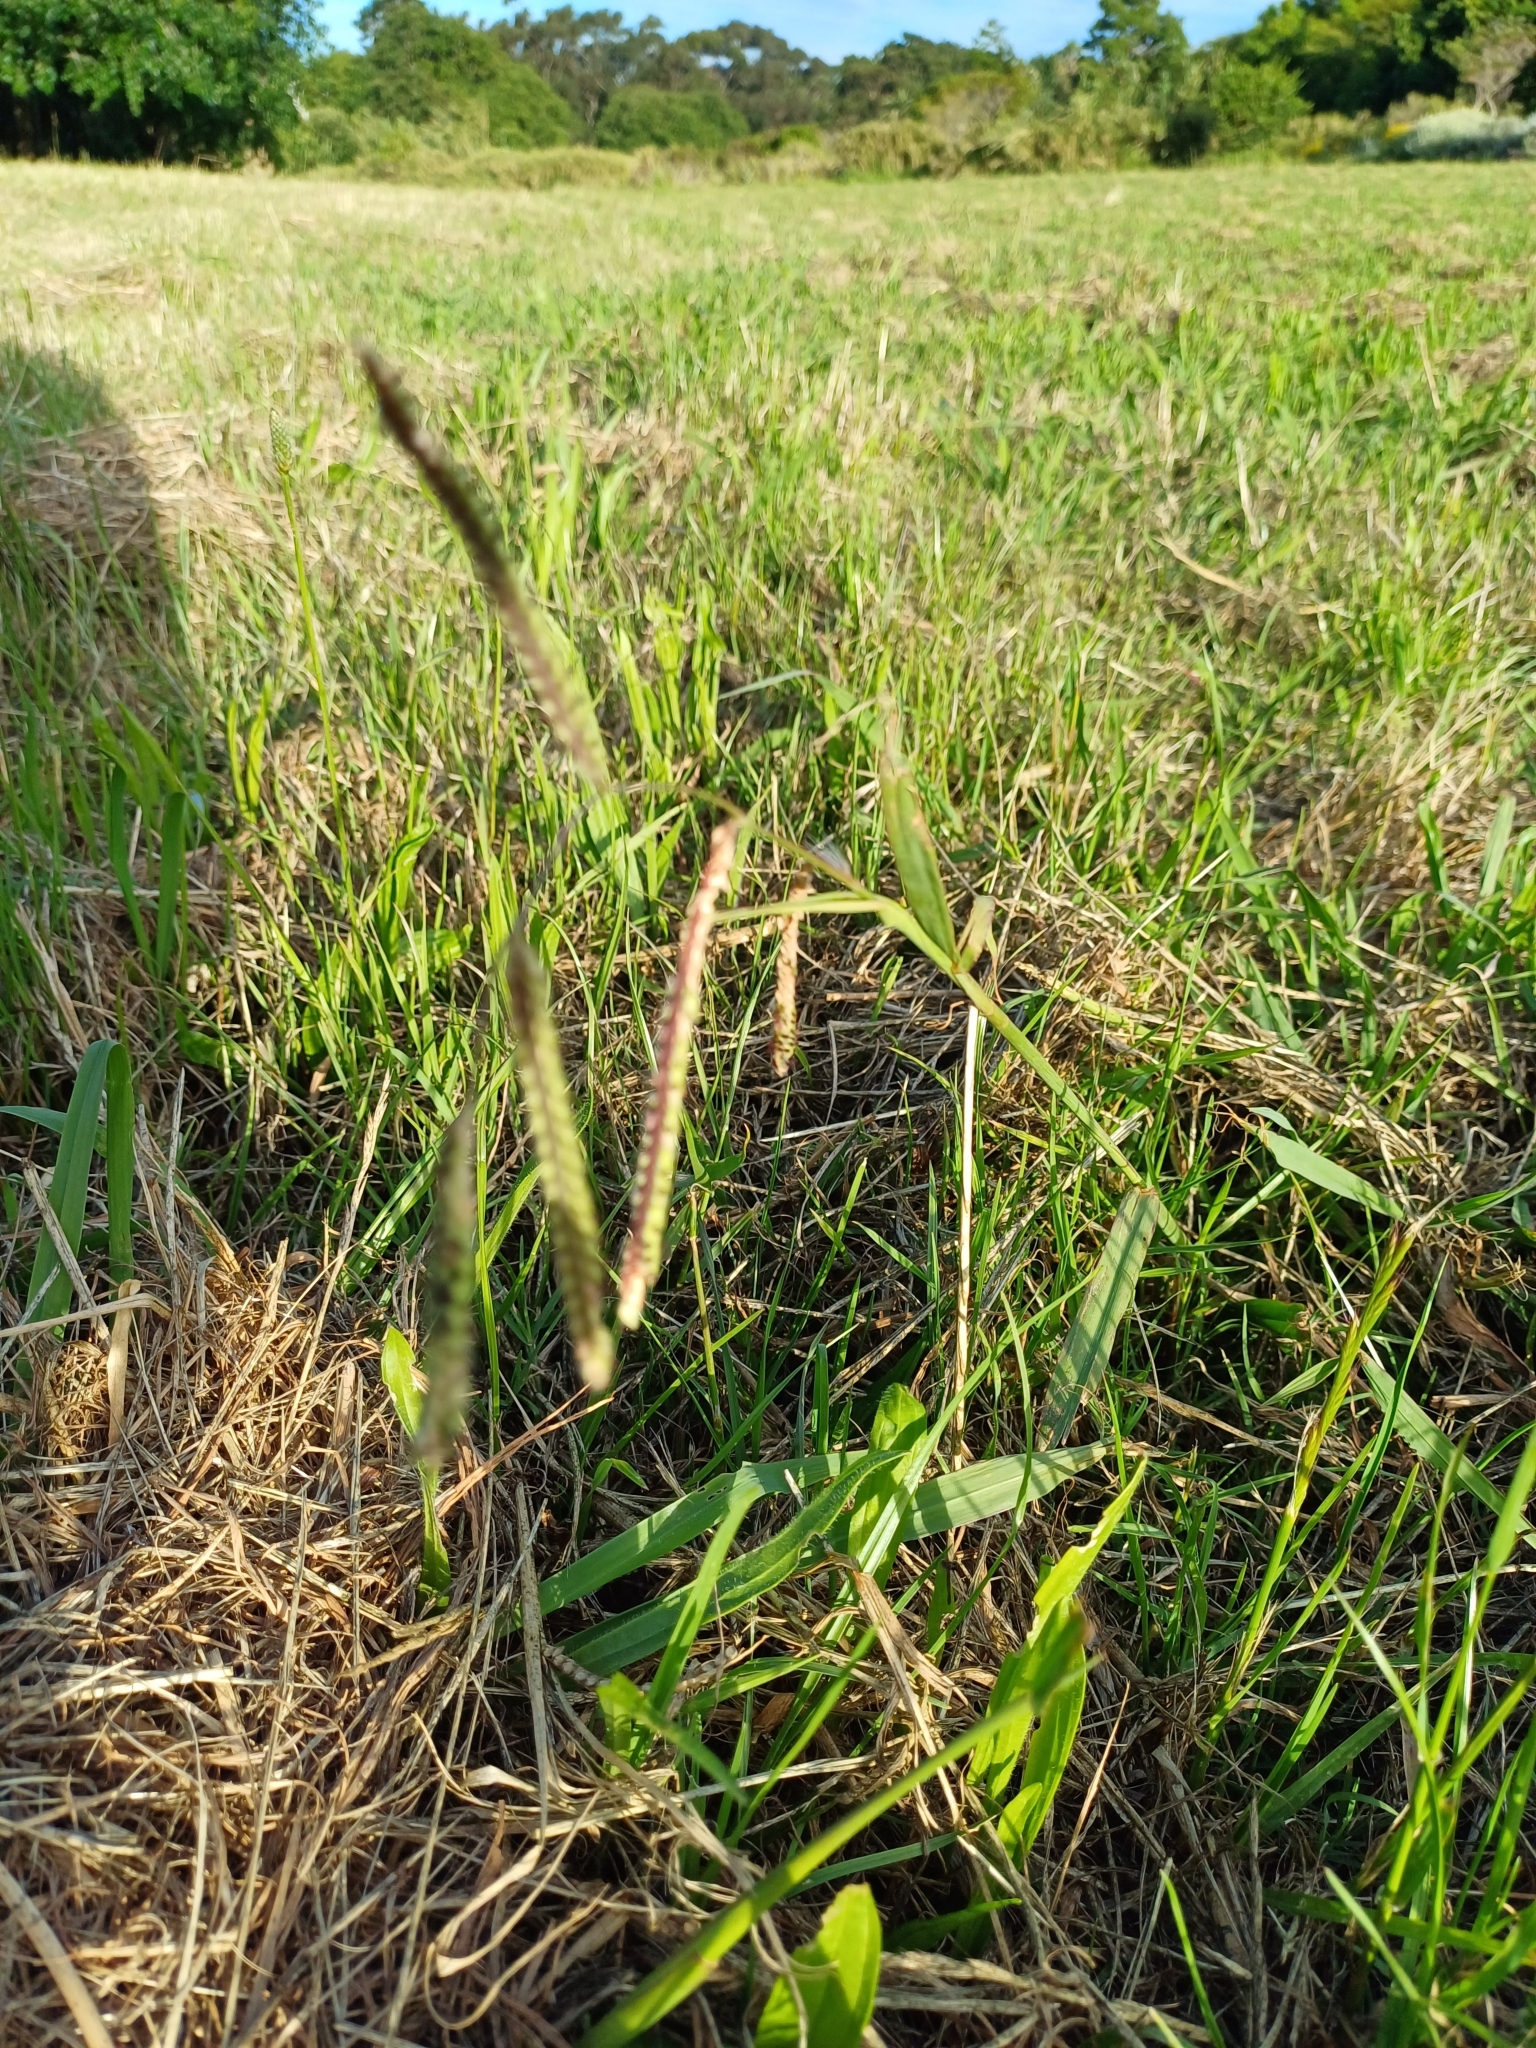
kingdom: Plantae
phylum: Tracheophyta
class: Liliopsida
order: Poales
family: Poaceae
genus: Paspalum
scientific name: Paspalum dilatatum
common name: Dallisgrass
